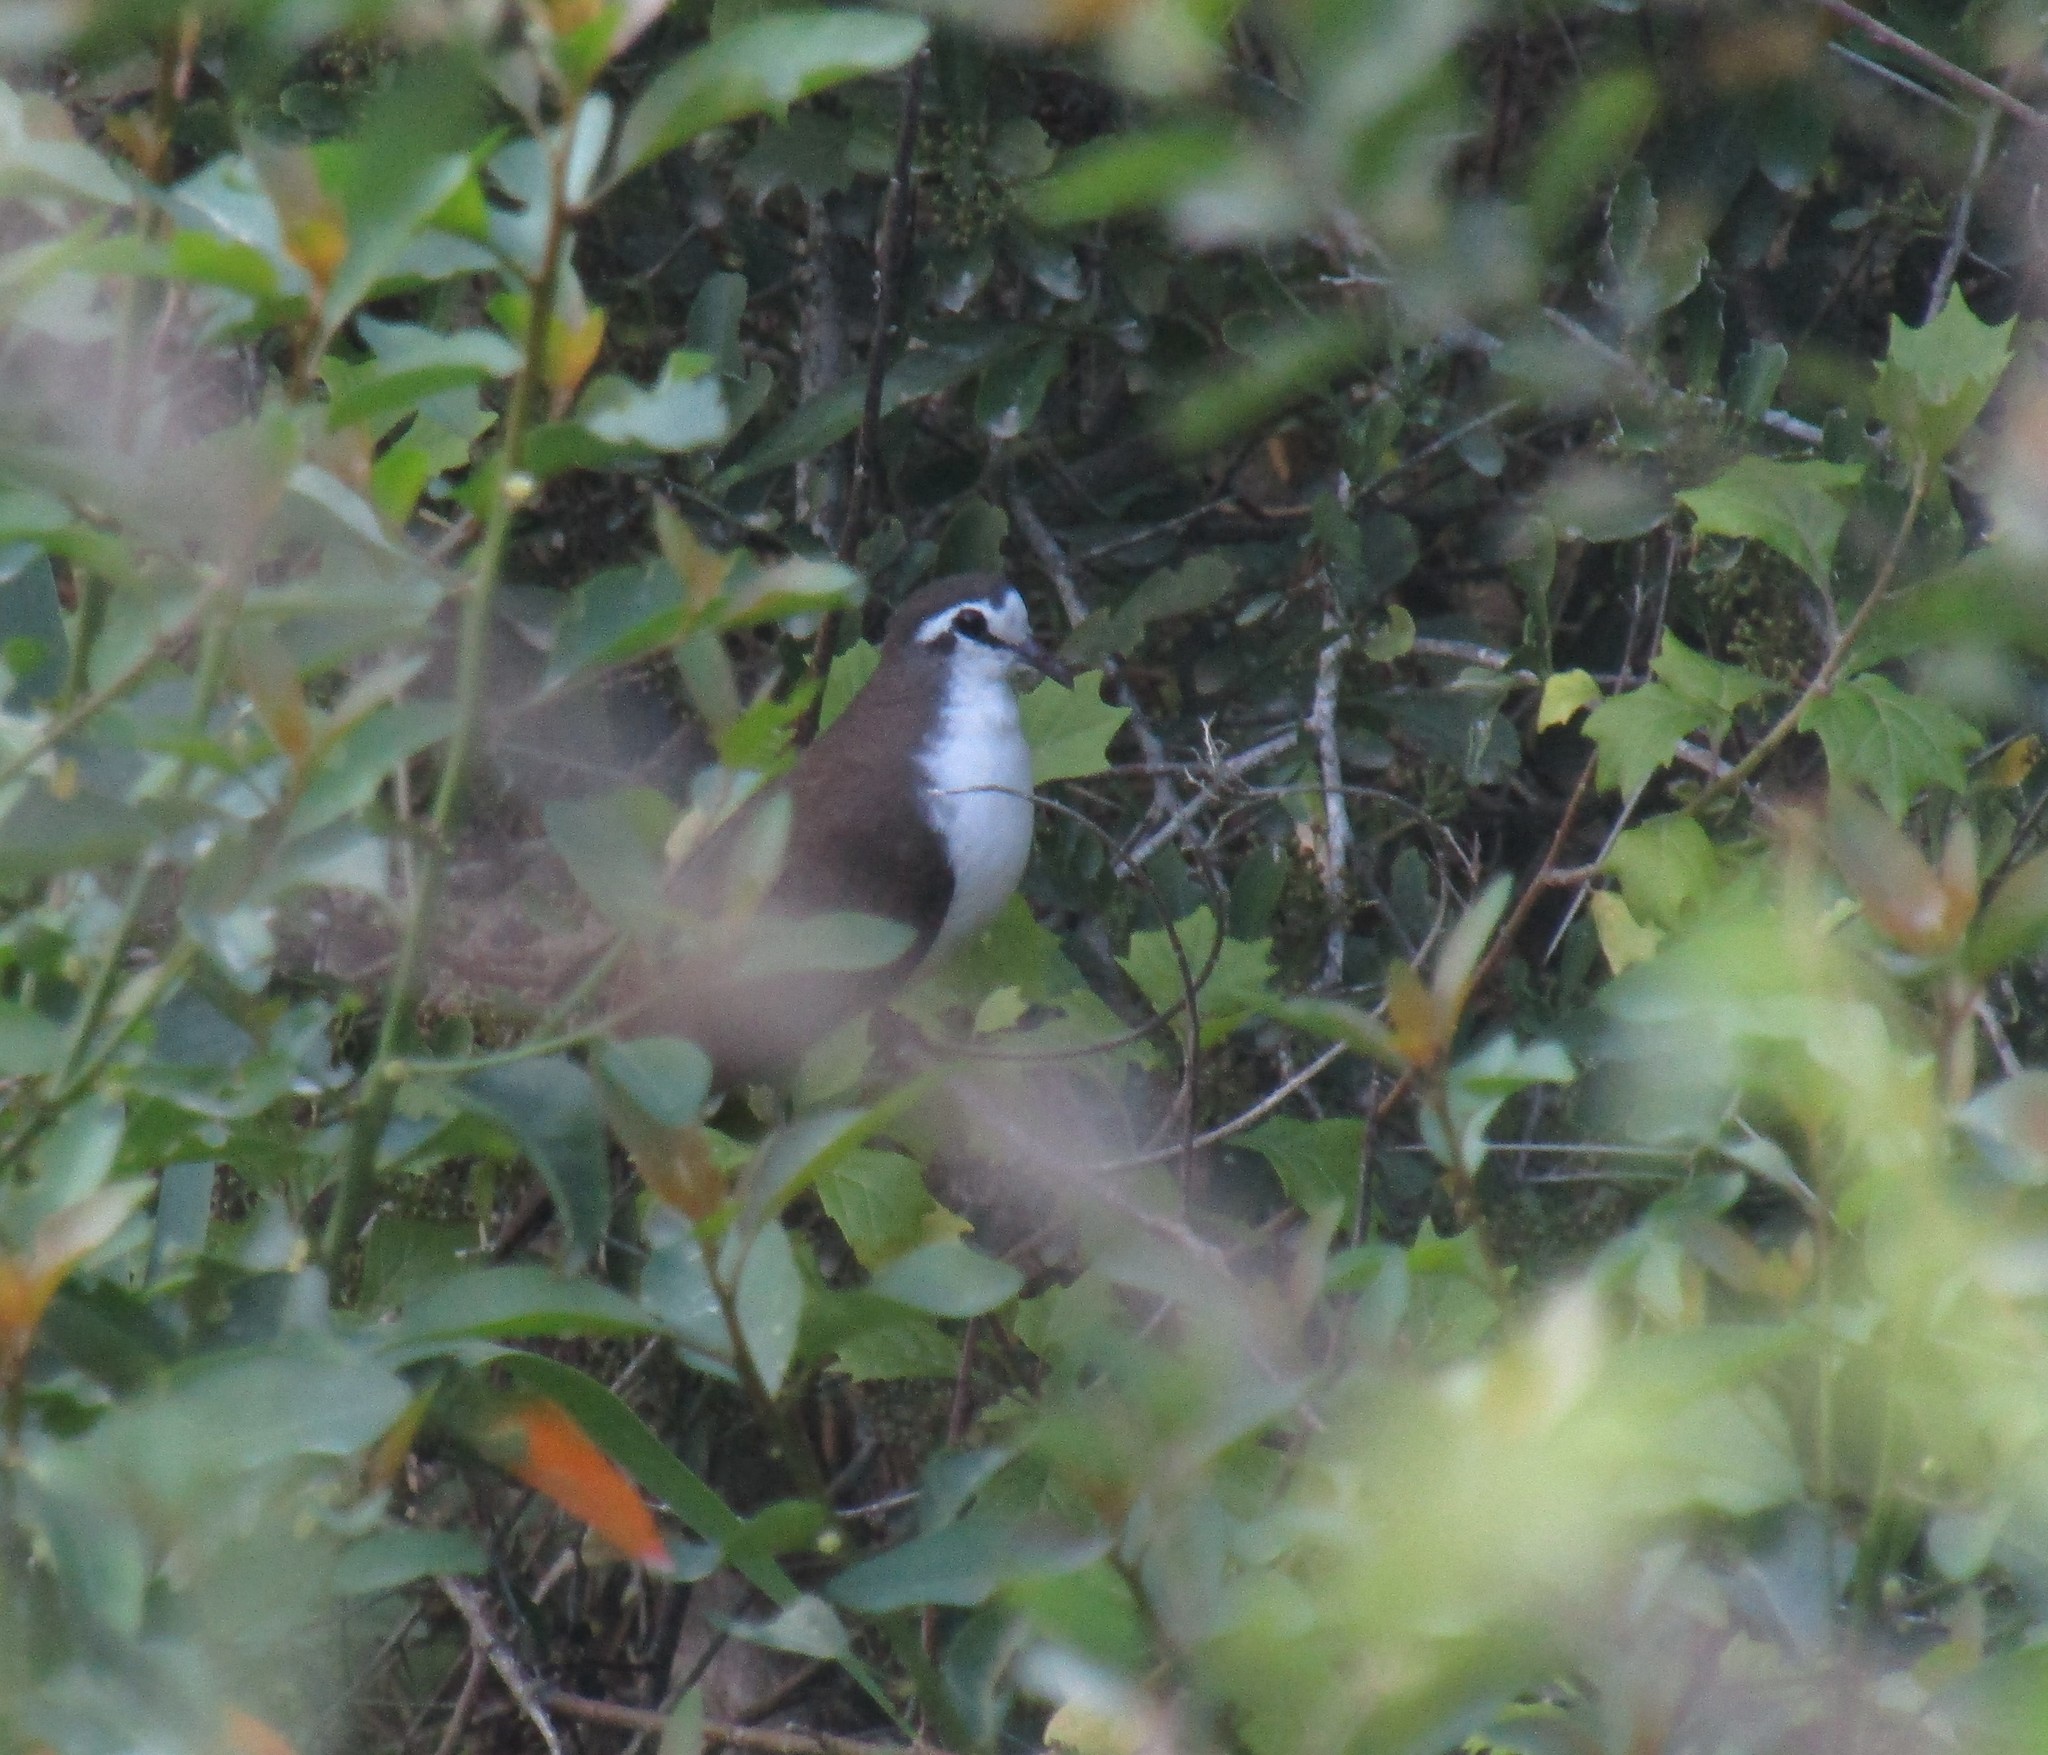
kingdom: Animalia
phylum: Chordata
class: Aves
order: Columbiformes
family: Columbidae
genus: Turtur
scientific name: Turtur tympanistria
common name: Tambourine dove
